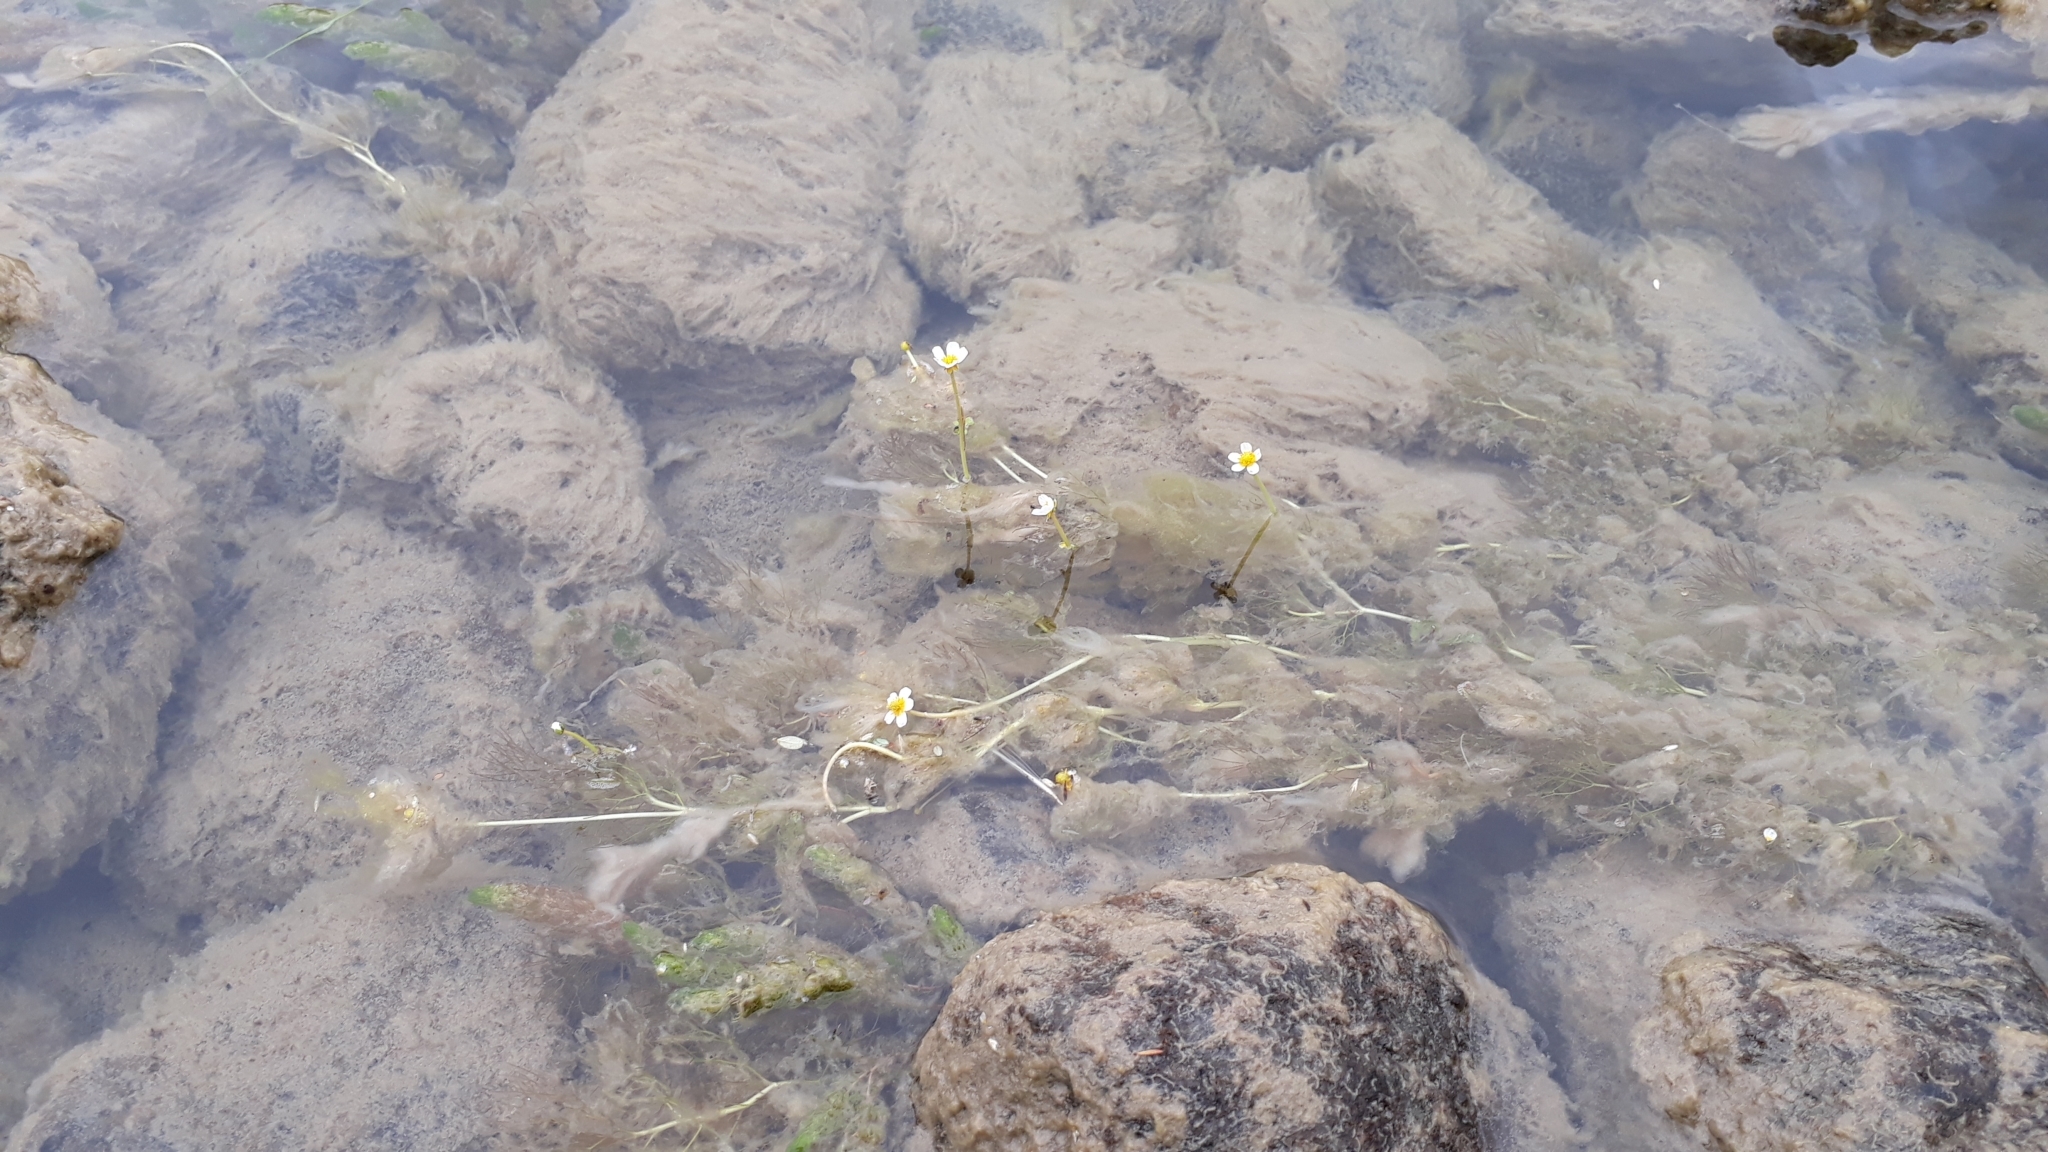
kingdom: Plantae
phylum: Tracheophyta
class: Magnoliopsida
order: Ranunculales
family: Ranunculaceae
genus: Ranunculus
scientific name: Ranunculus fluitans
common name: River water-crowfoot
